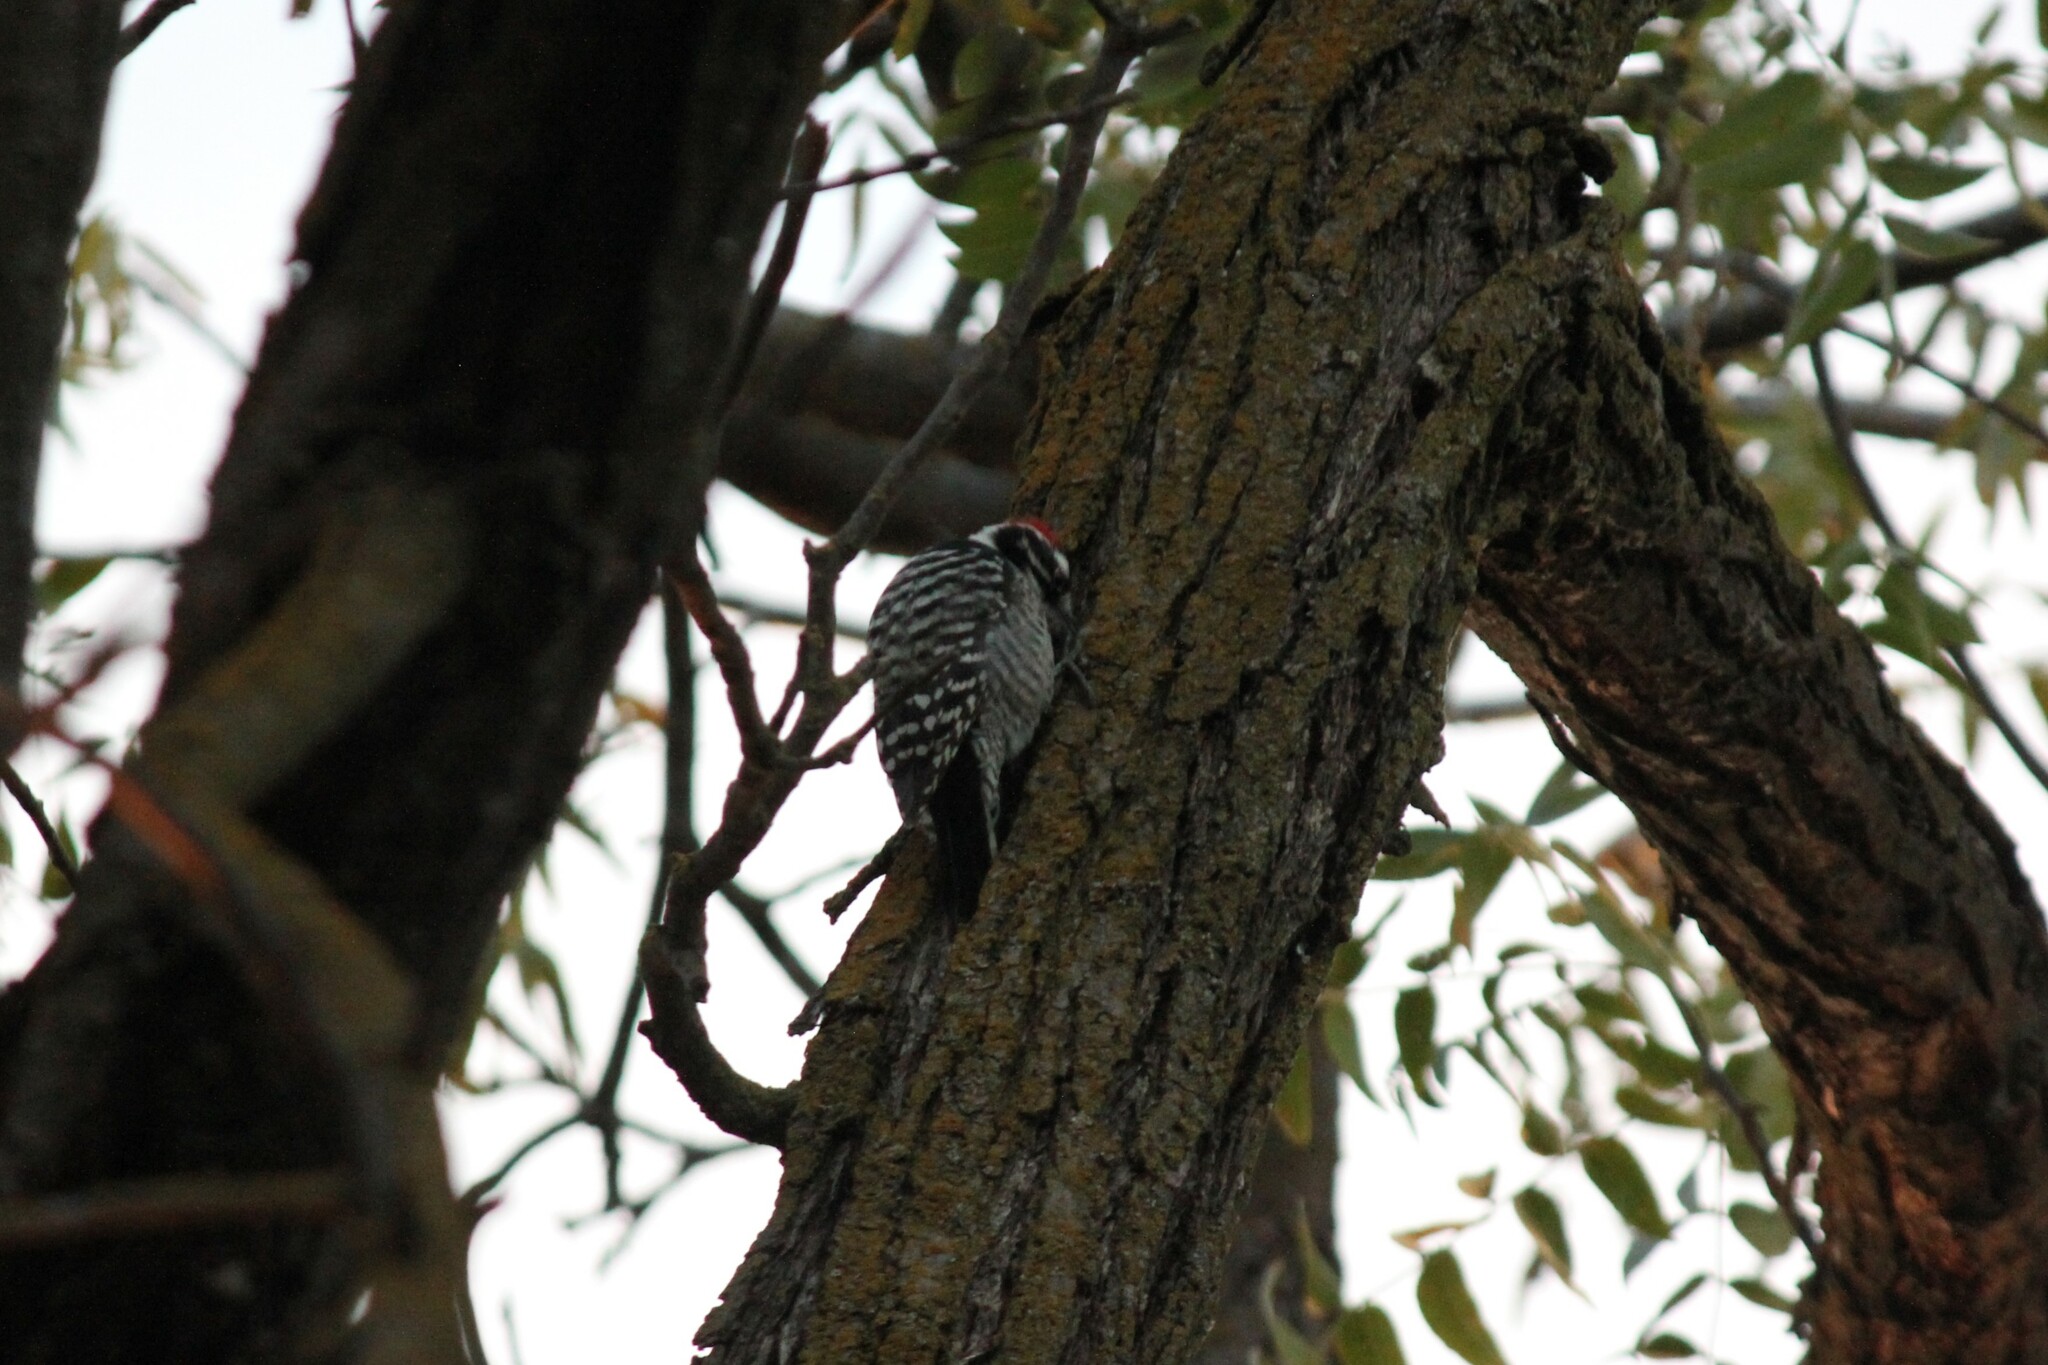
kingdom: Animalia
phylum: Chordata
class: Aves
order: Piciformes
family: Picidae
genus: Dryobates
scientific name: Dryobates nuttallii
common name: Nuttall's woodpecker
